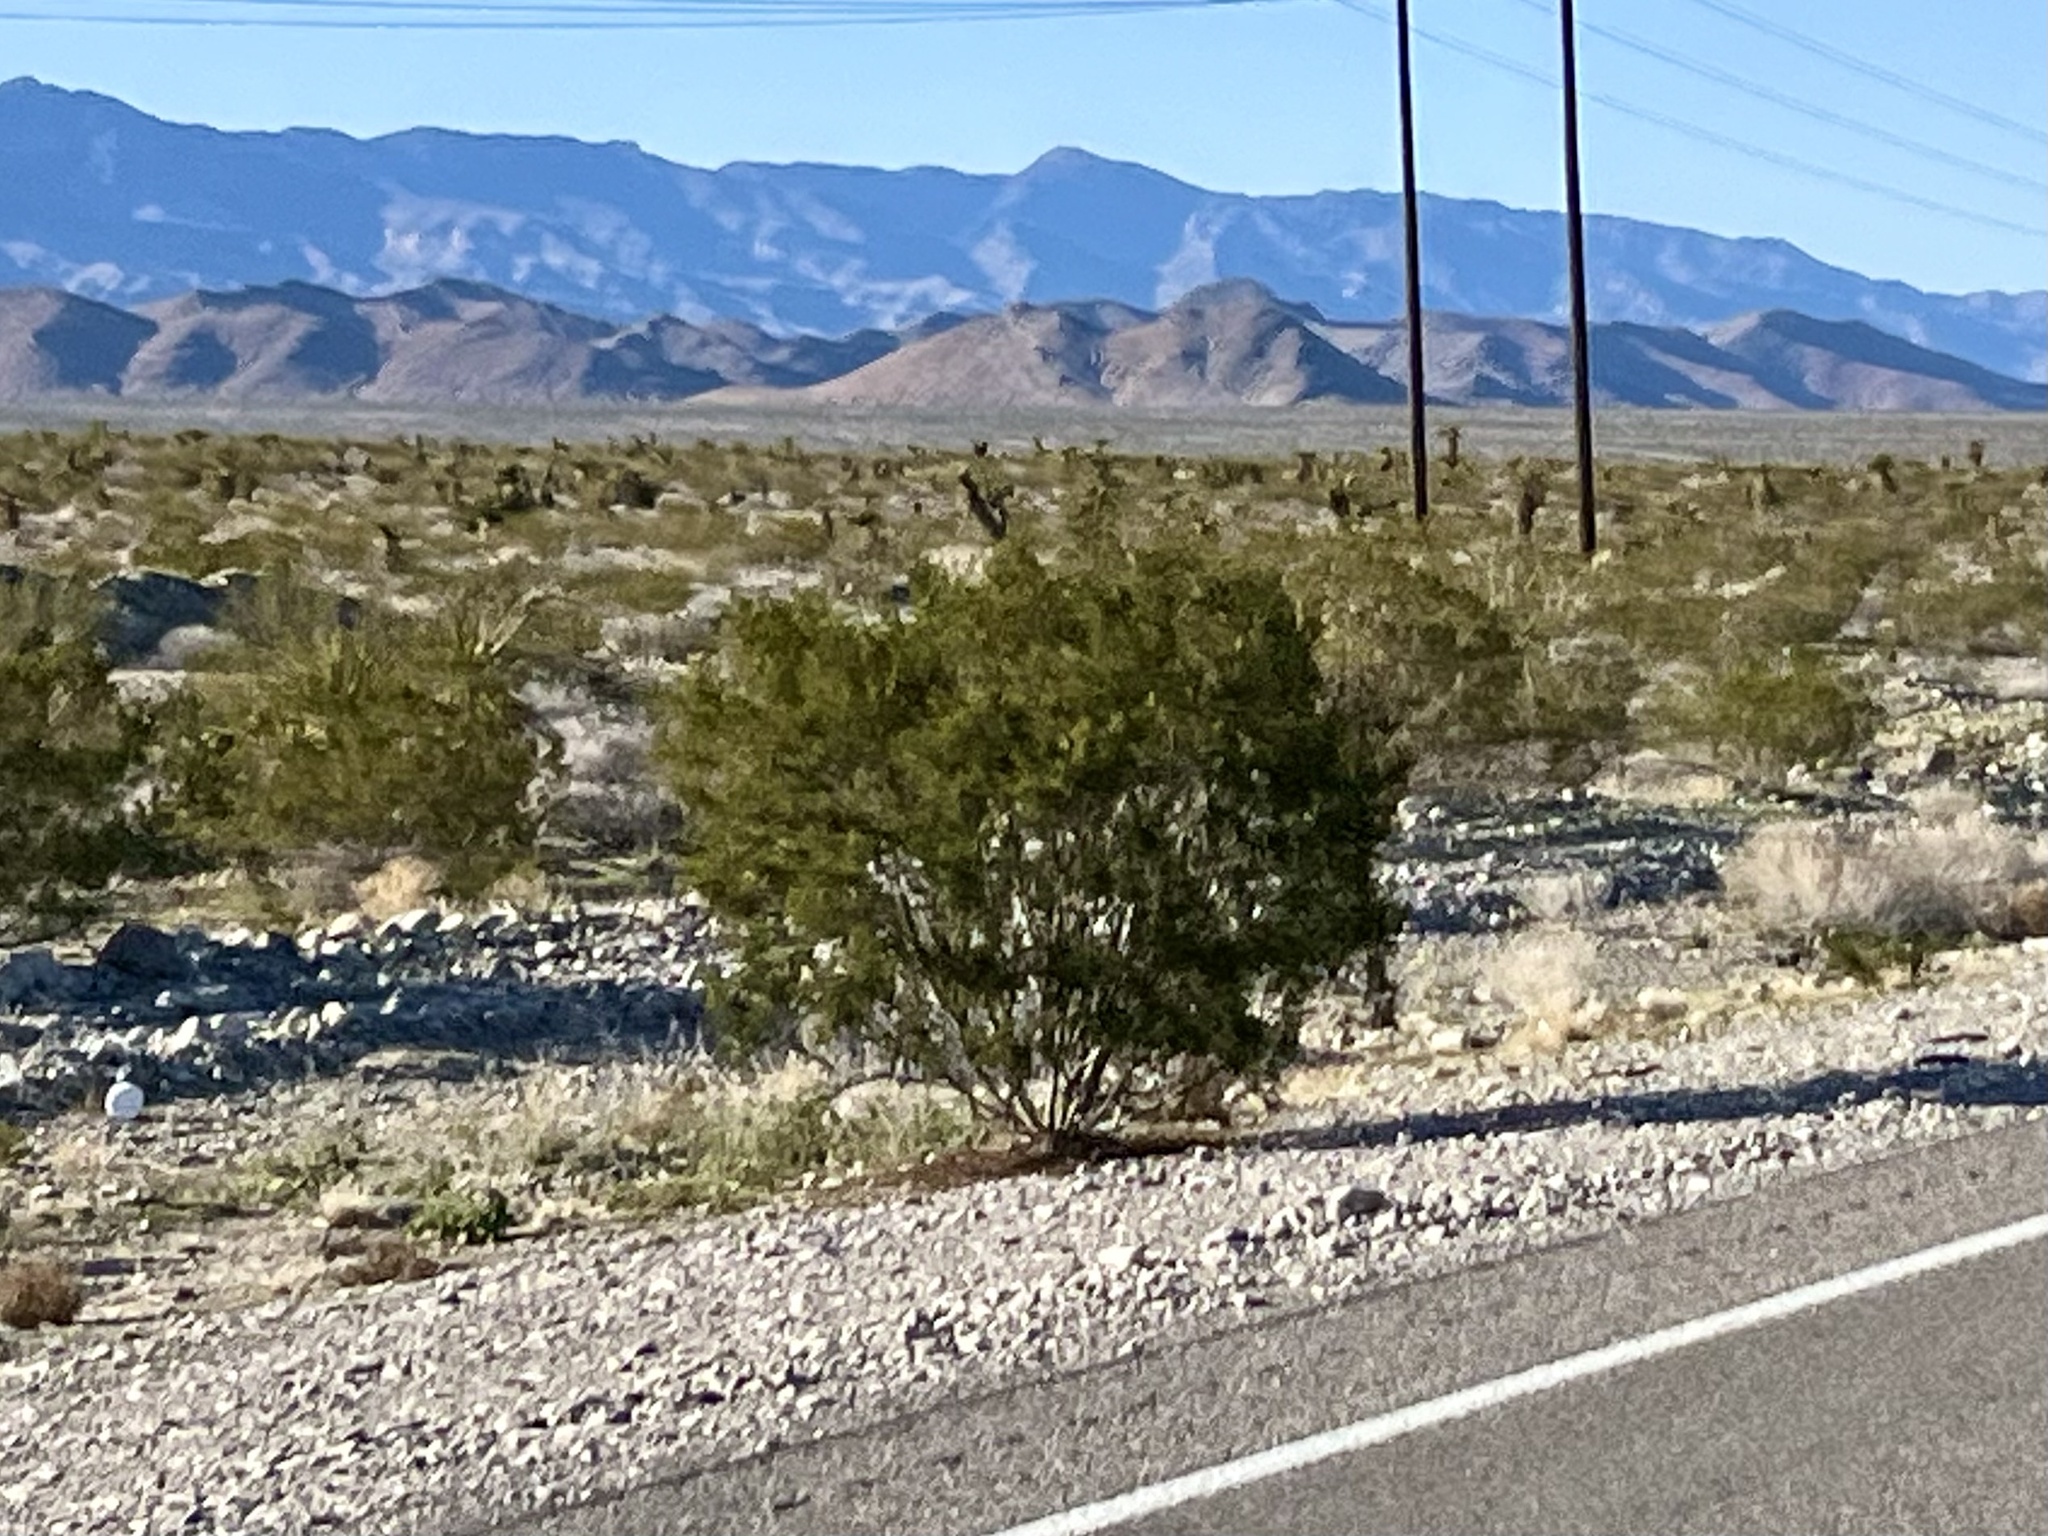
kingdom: Plantae
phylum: Tracheophyta
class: Magnoliopsida
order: Zygophyllales
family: Zygophyllaceae
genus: Larrea
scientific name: Larrea tridentata
